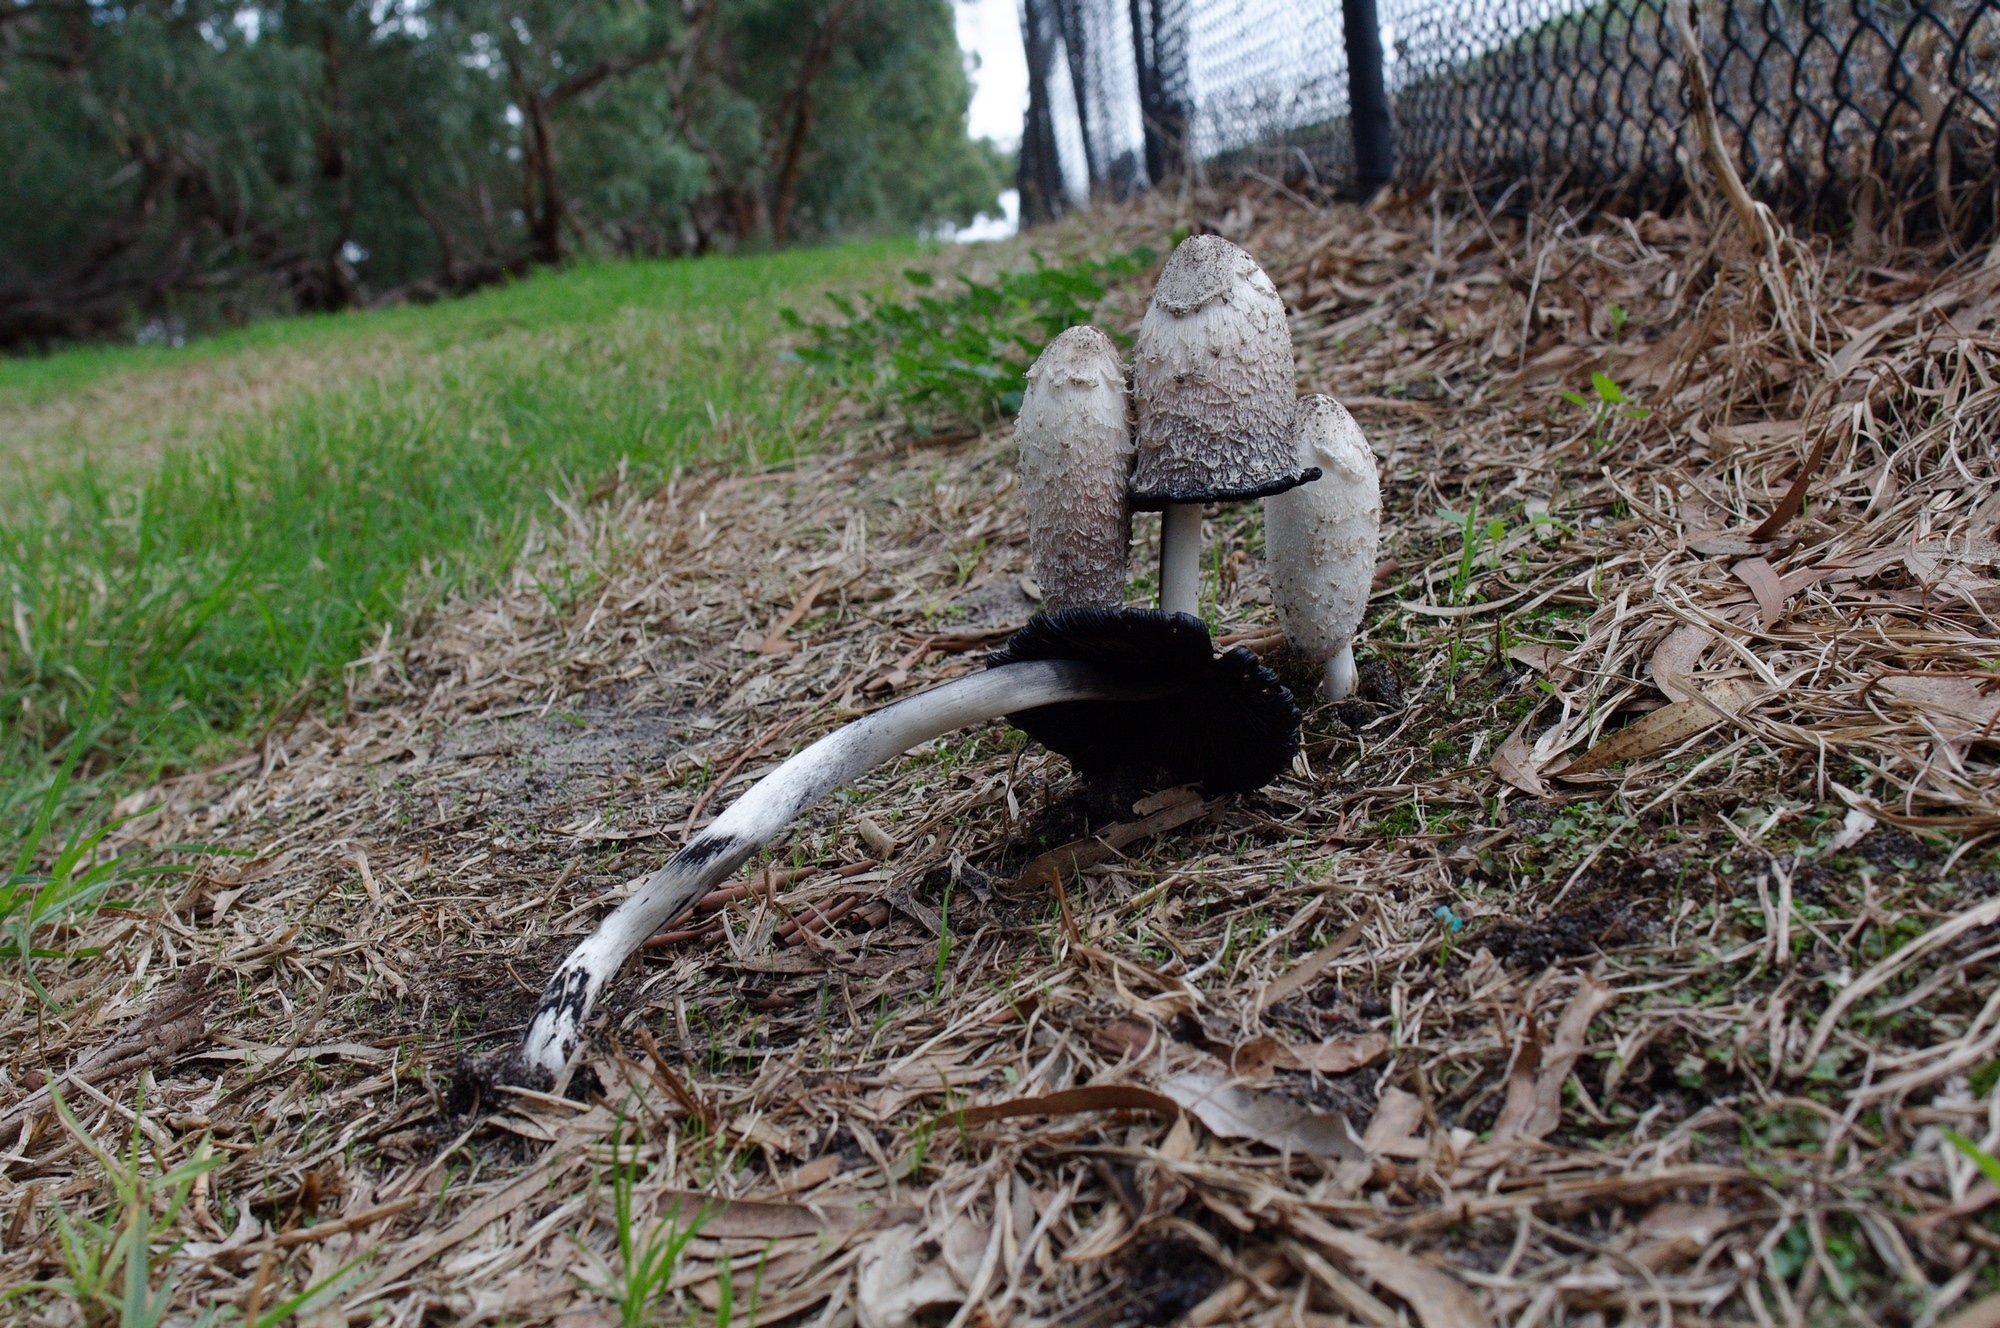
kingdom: Fungi
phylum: Basidiomycota
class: Agaricomycetes
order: Agaricales
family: Agaricaceae
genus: Coprinus
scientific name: Coprinus comatus
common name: Lawyer's wig
